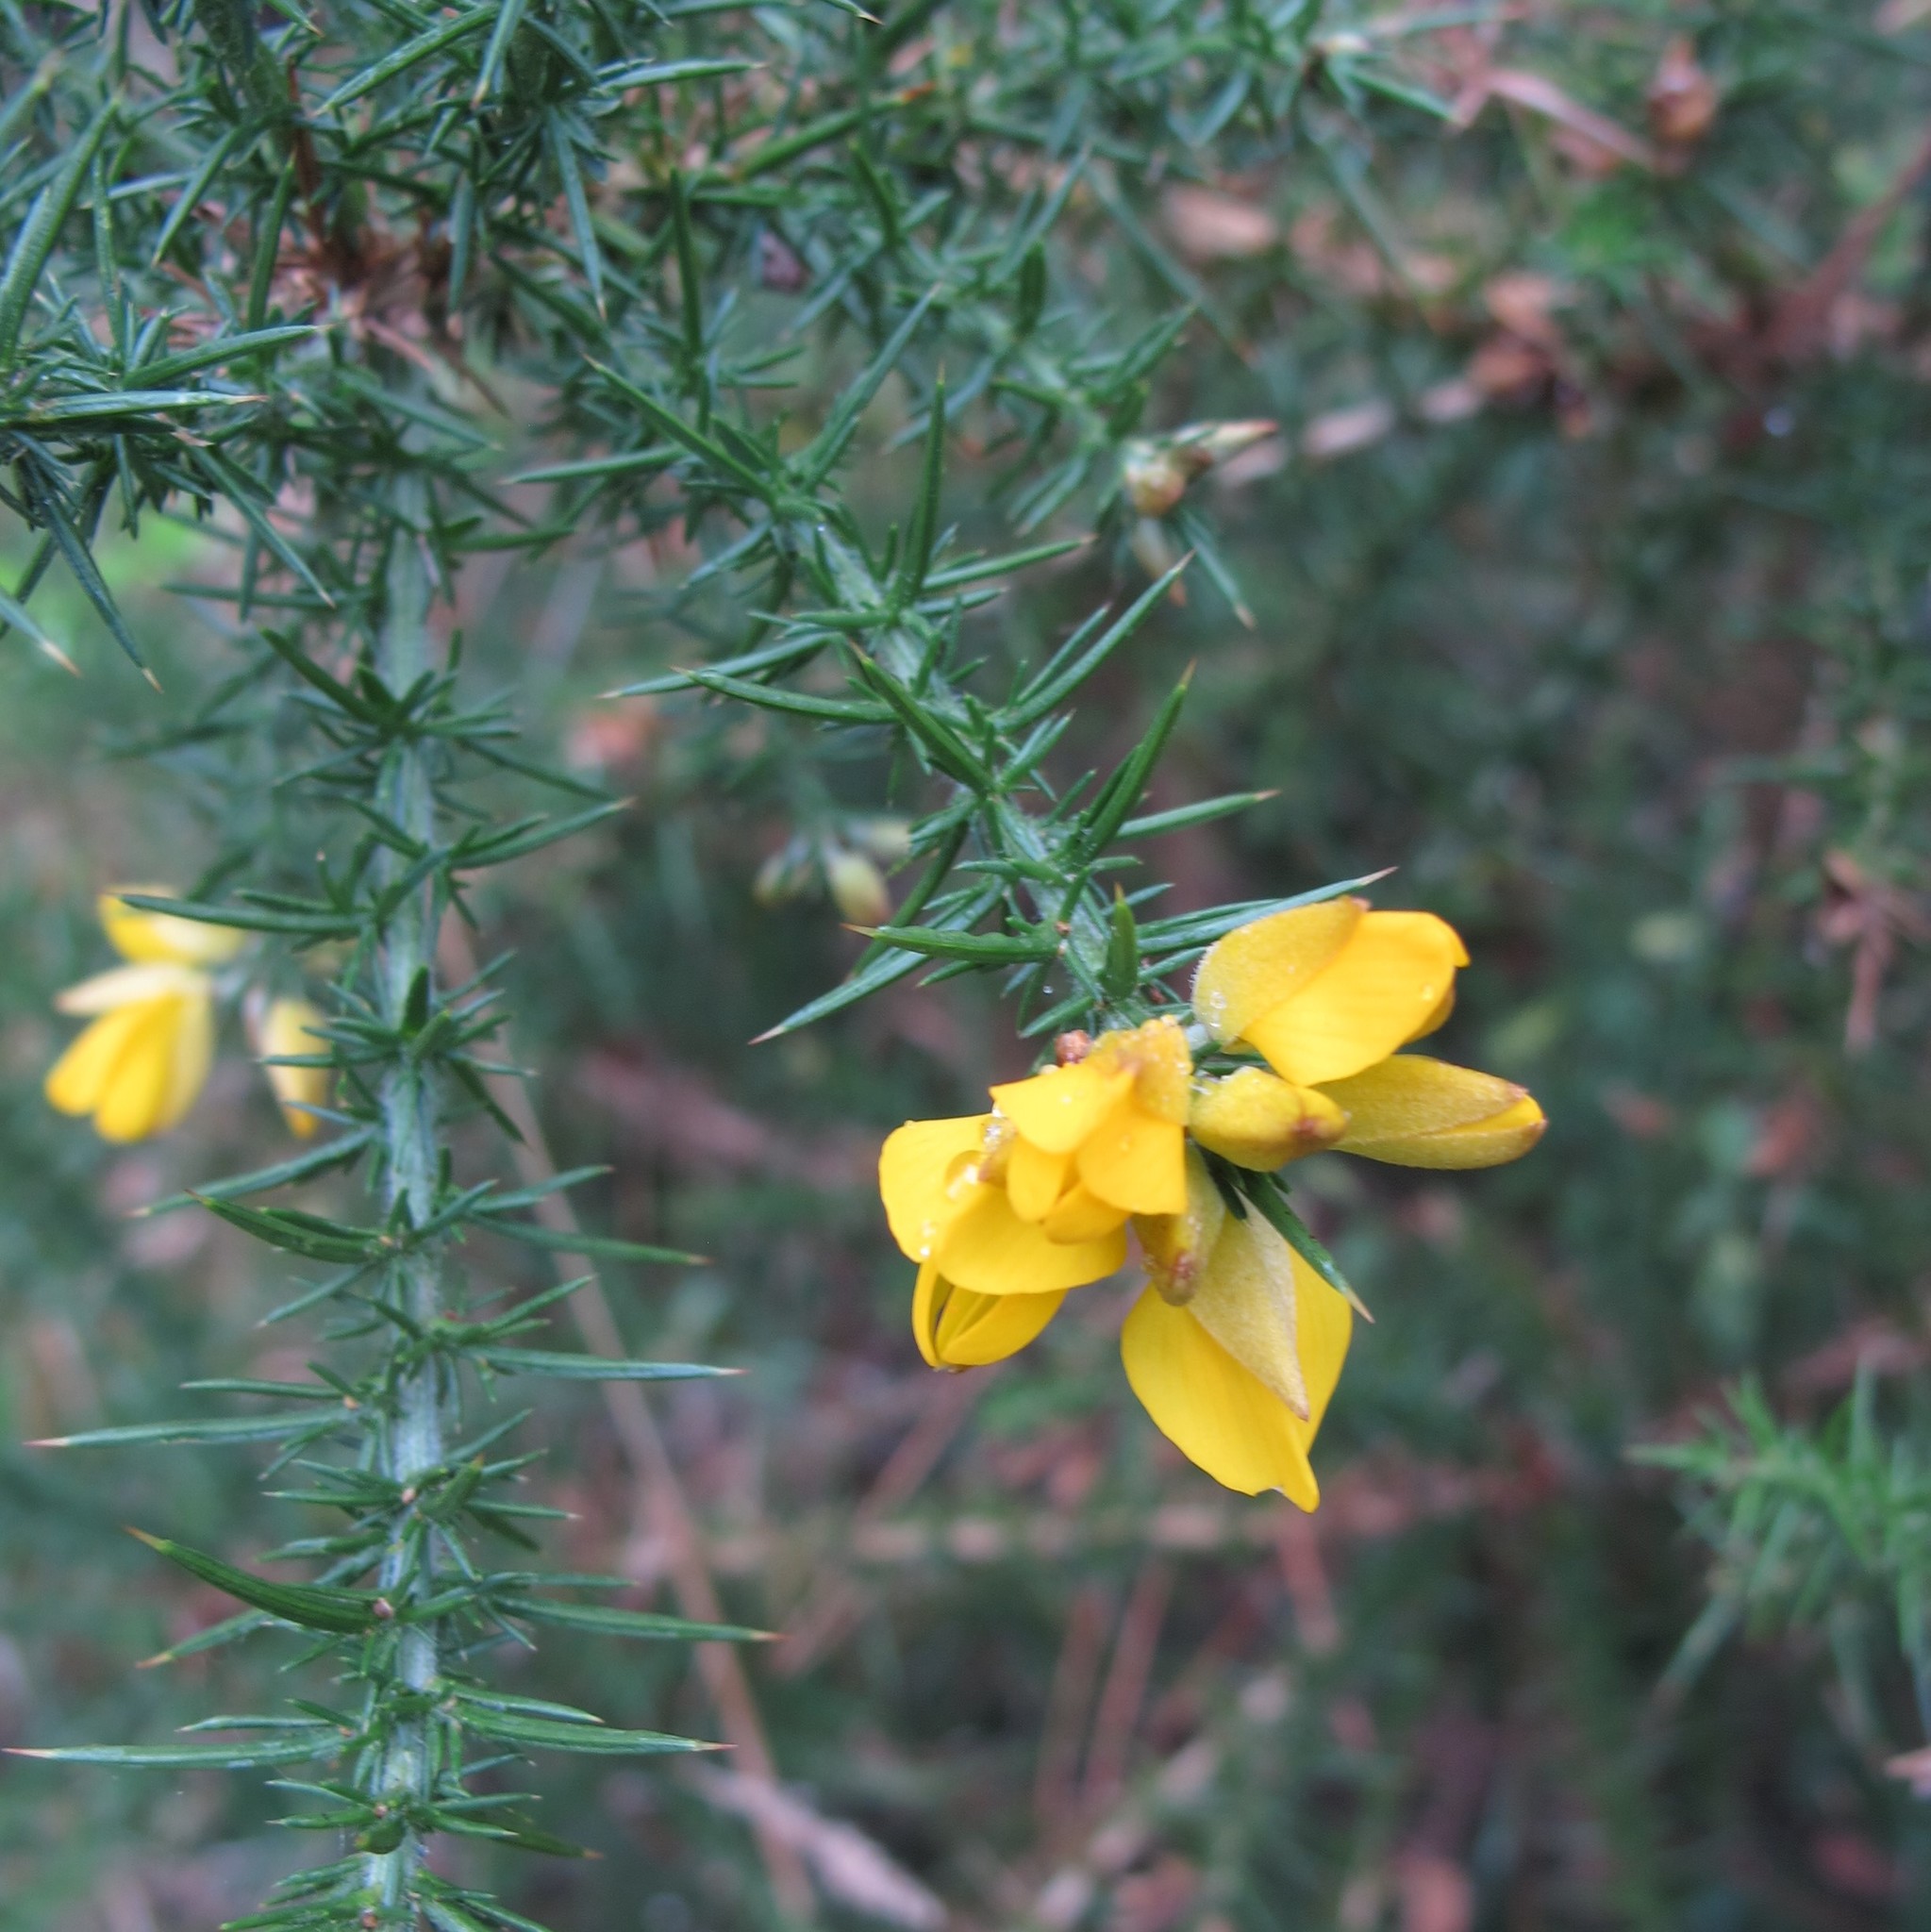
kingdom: Plantae
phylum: Tracheophyta
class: Magnoliopsida
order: Fabales
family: Fabaceae
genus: Ulex
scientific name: Ulex gallii
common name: Western gorse
